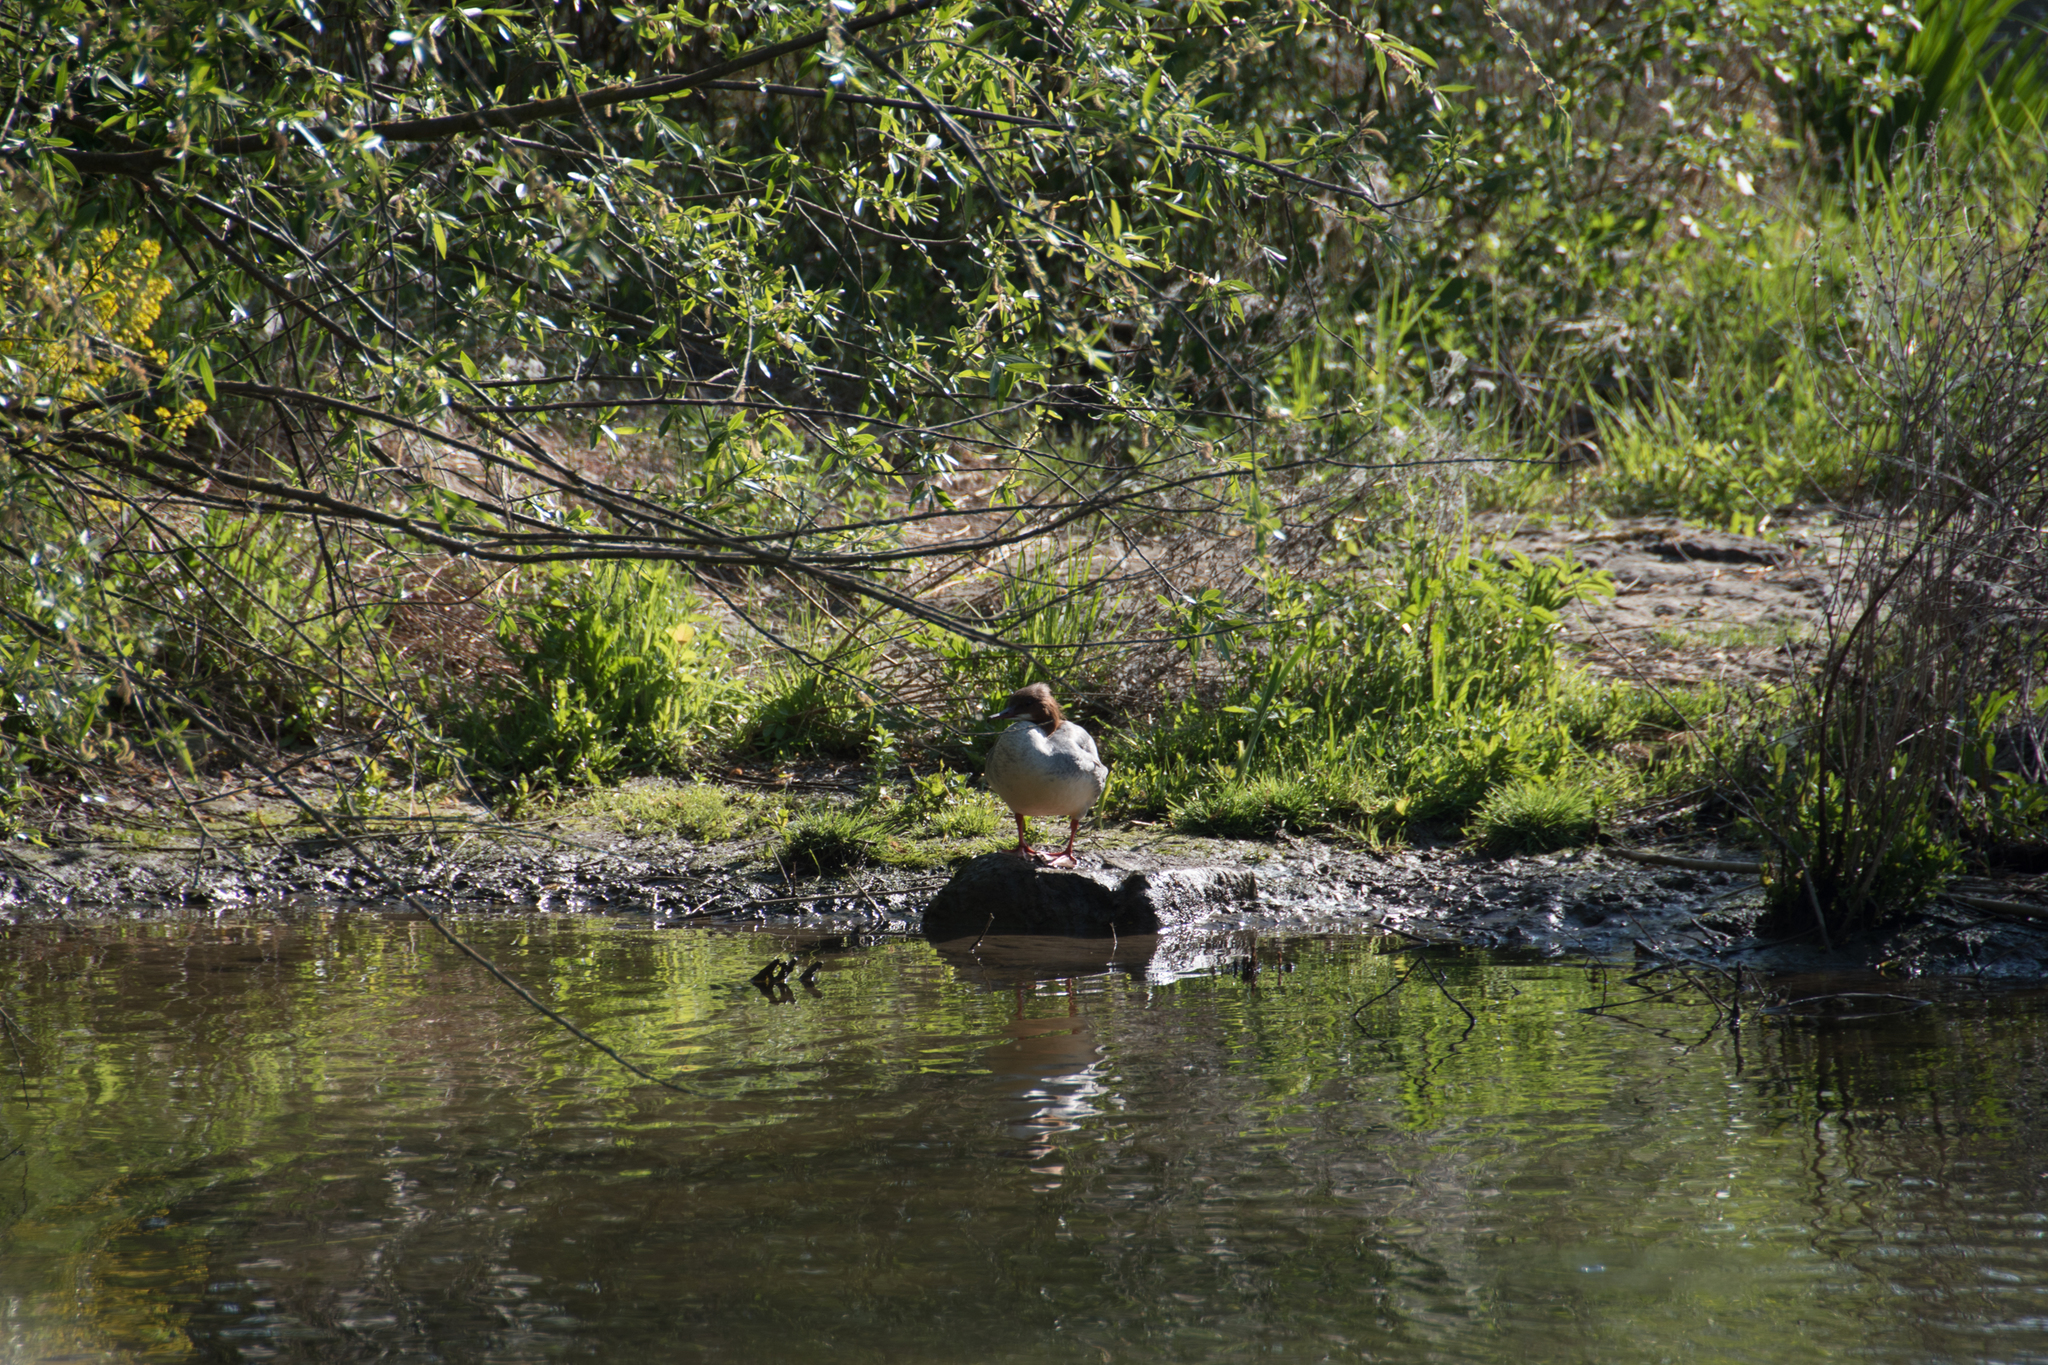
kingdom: Animalia
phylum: Chordata
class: Aves
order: Anseriformes
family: Anatidae
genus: Mergus
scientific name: Mergus merganser
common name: Common merganser
